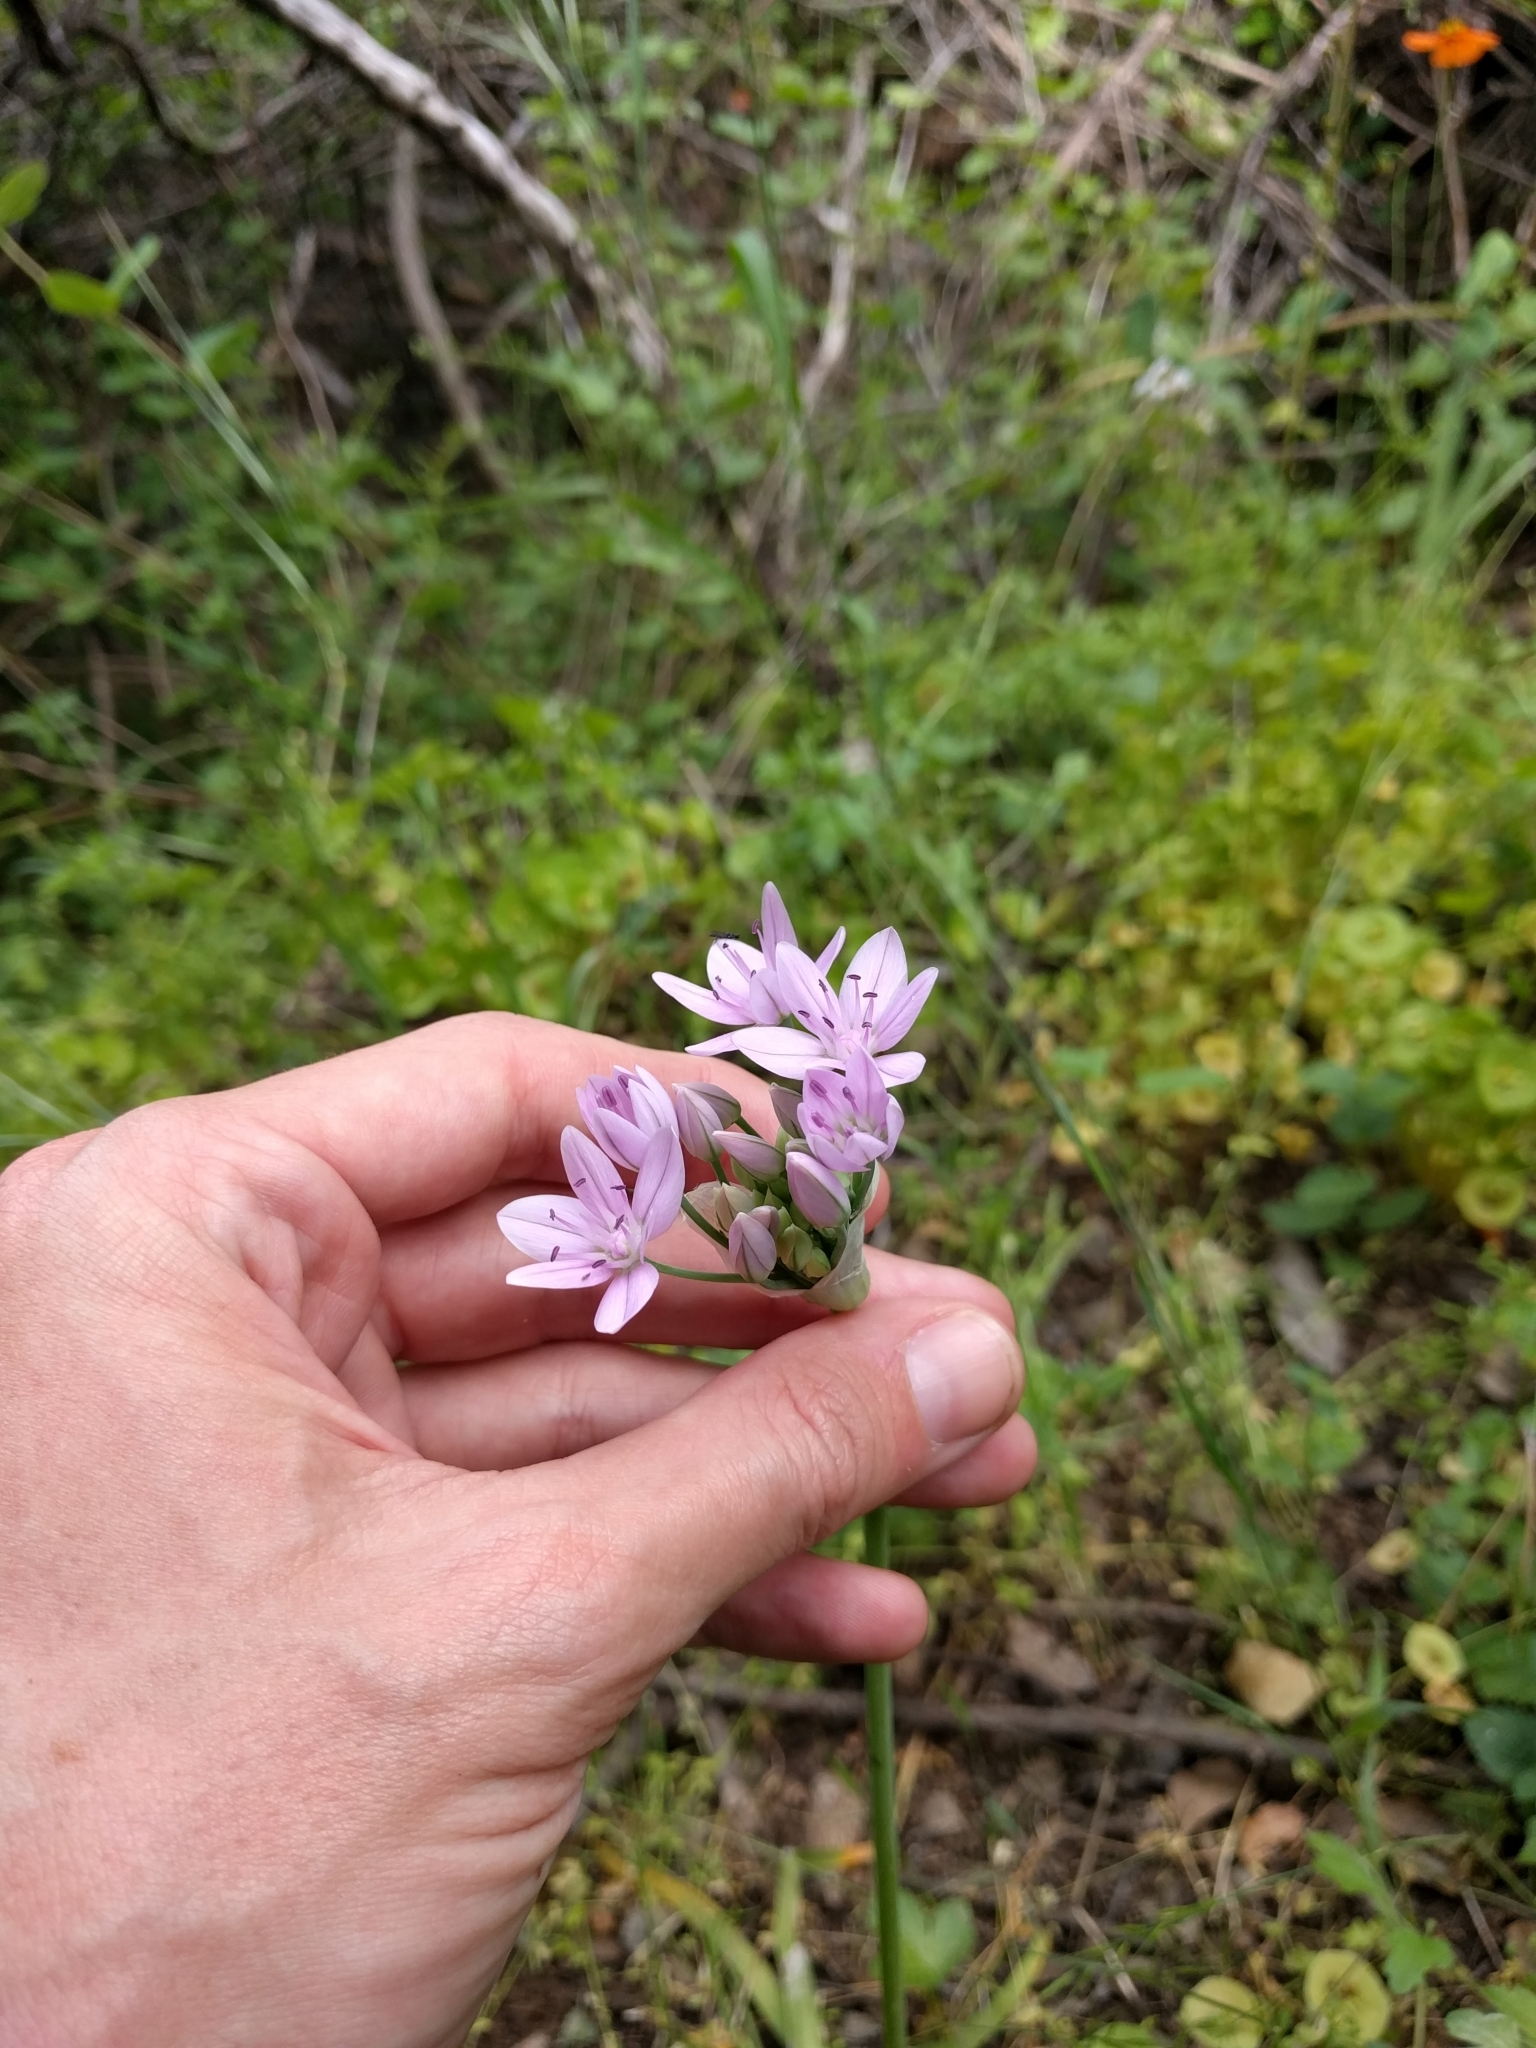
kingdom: Plantae
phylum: Tracheophyta
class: Liliopsida
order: Asparagales
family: Amaryllidaceae
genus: Allium
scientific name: Allium unifolium
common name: American garlic
